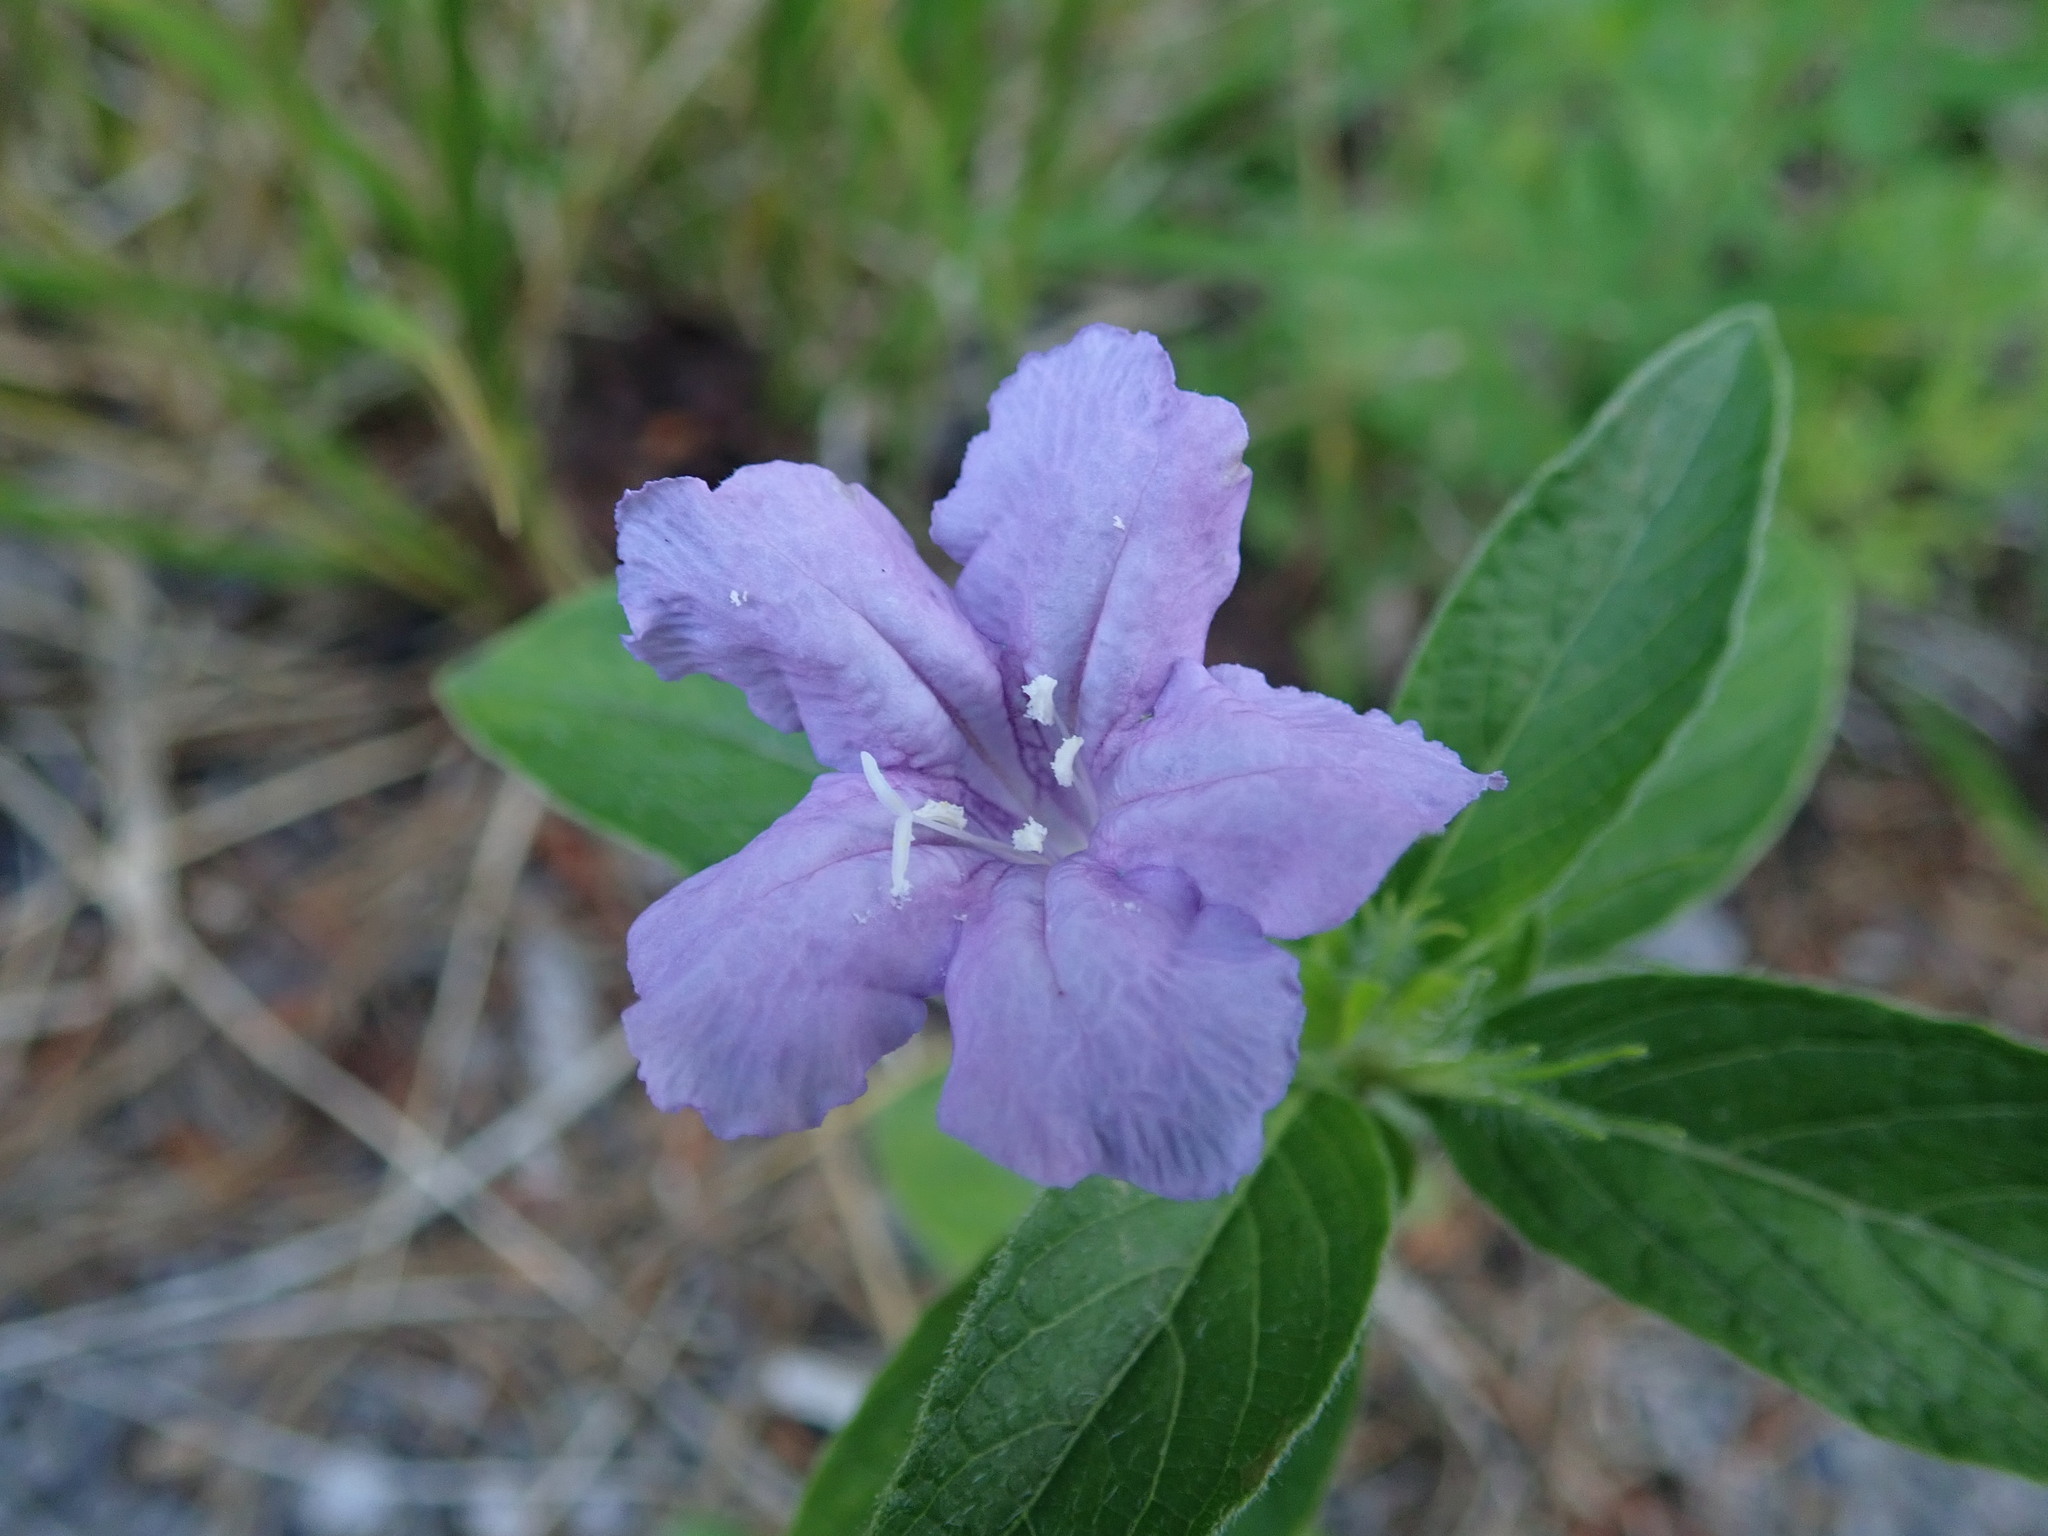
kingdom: Plantae
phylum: Tracheophyta
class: Magnoliopsida
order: Lamiales
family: Acanthaceae
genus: Ruellia
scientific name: Ruellia caroliniensis
